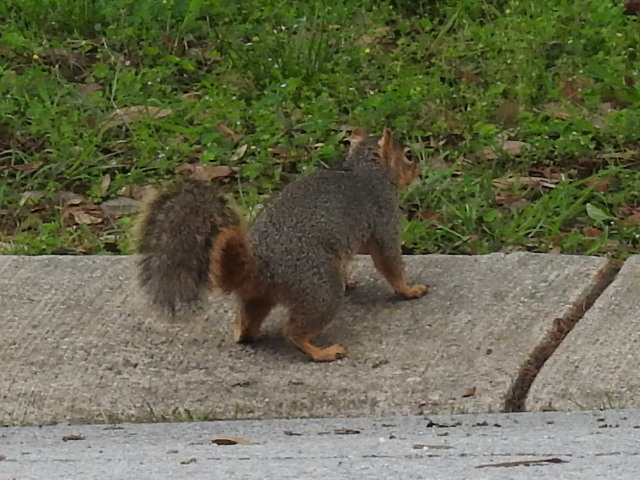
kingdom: Animalia
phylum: Chordata
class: Mammalia
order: Rodentia
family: Sciuridae
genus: Sciurus
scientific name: Sciurus niger
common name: Fox squirrel
